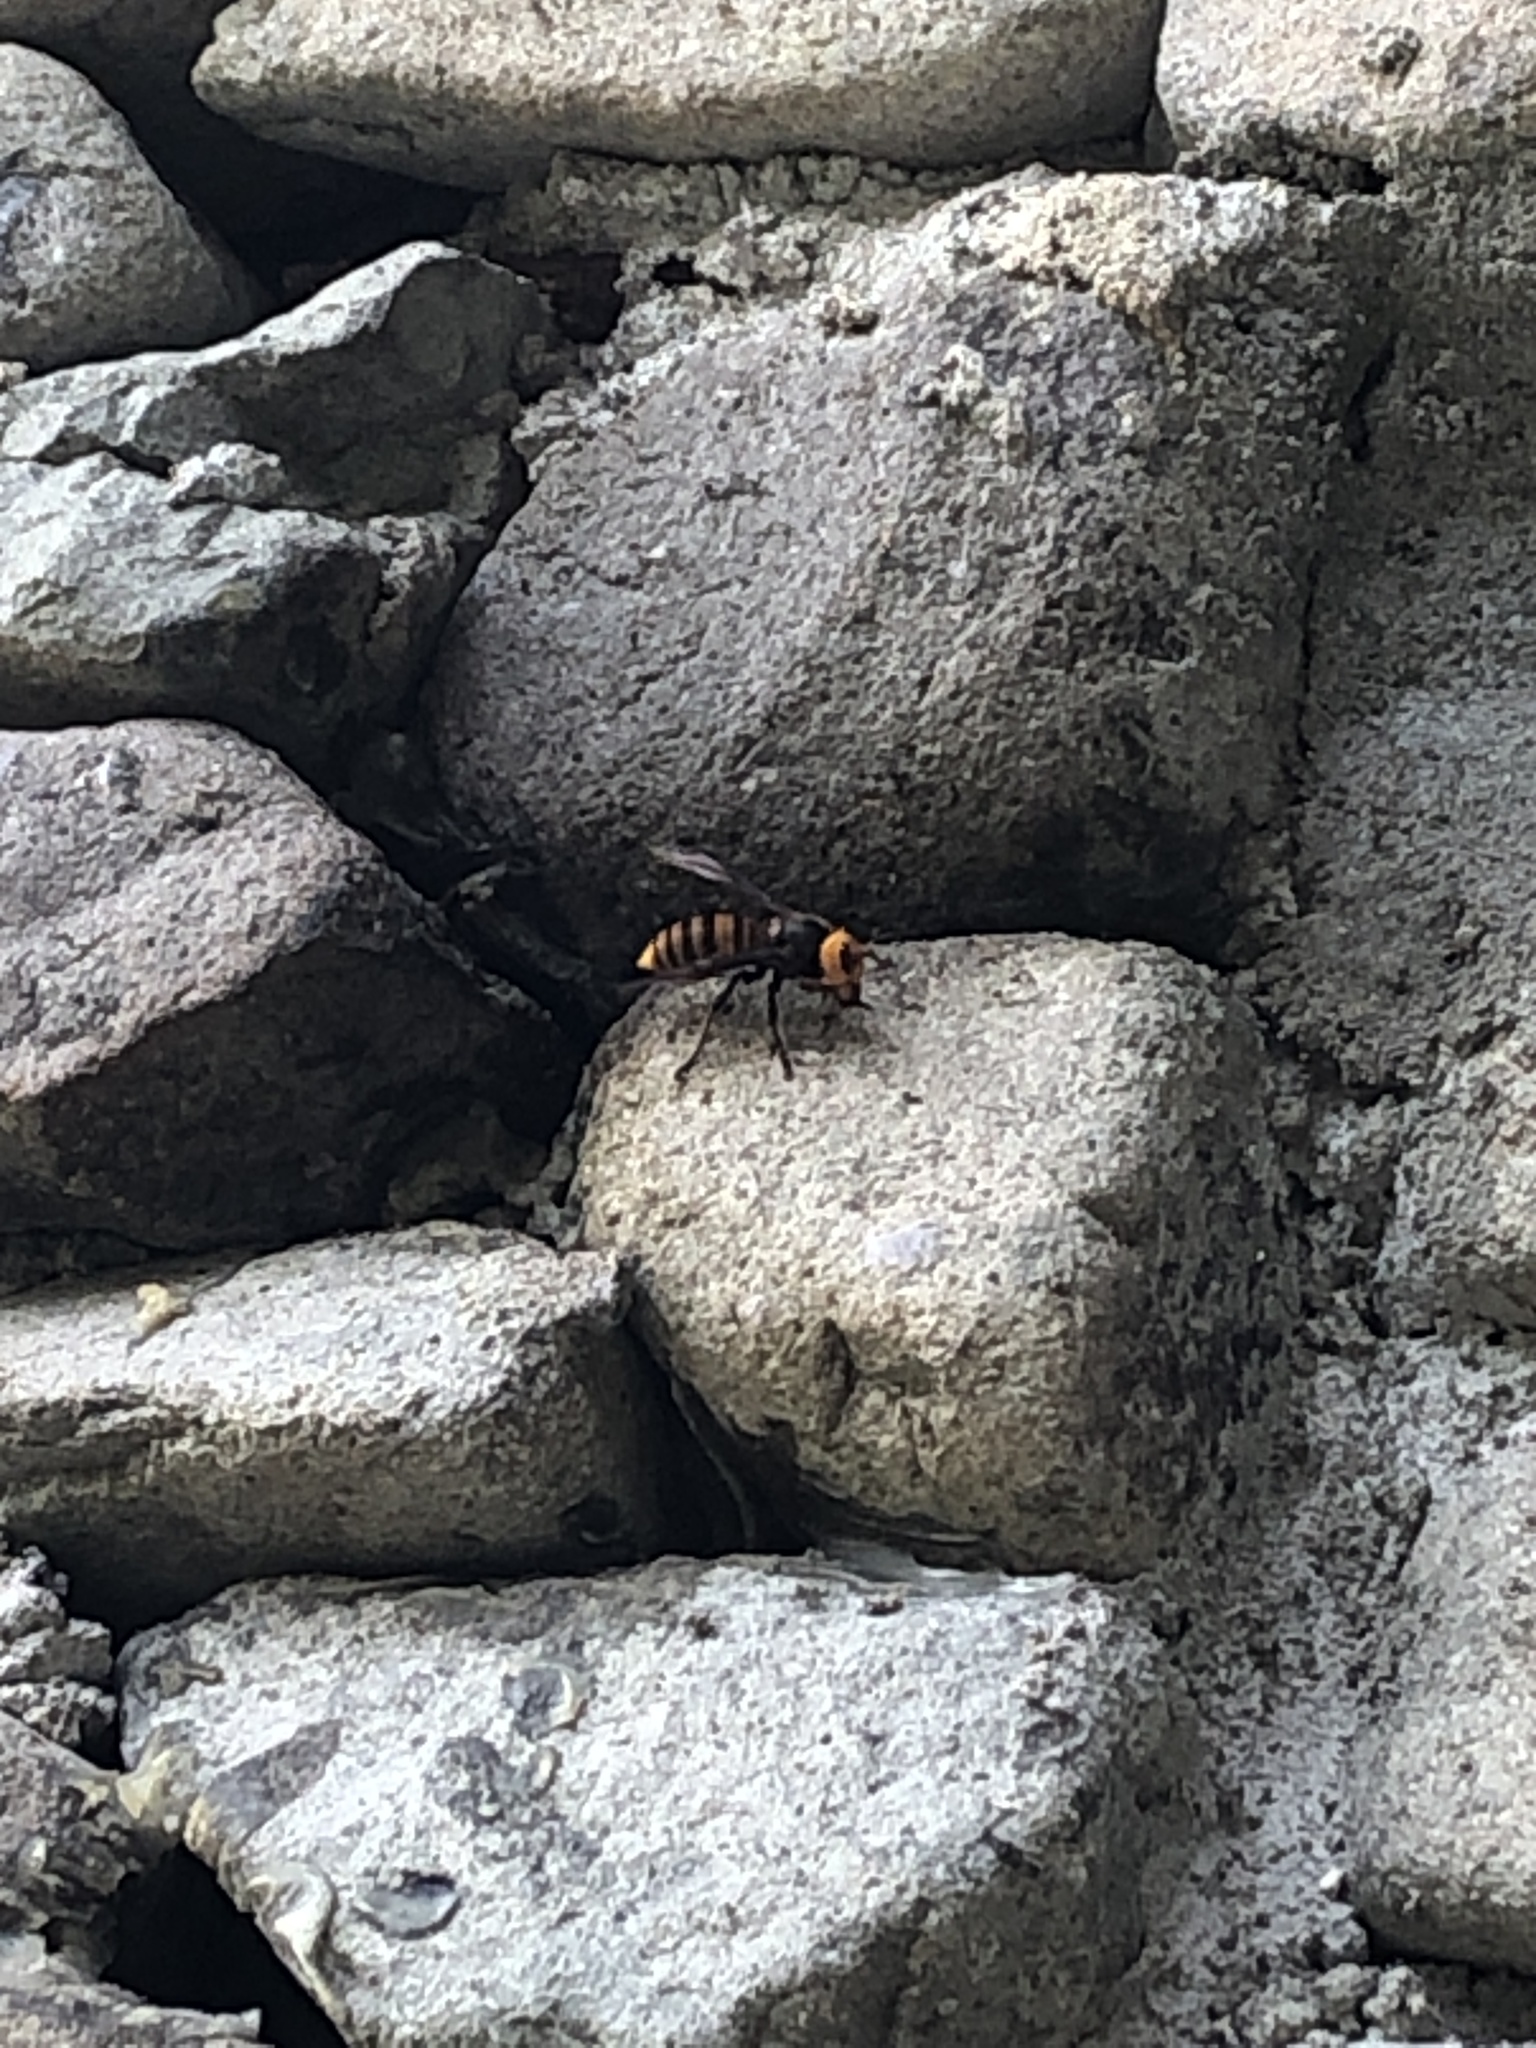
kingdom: Animalia
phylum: Arthropoda
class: Insecta
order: Hymenoptera
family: Vespidae
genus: Vespa
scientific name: Vespa mandarinia
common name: Asian giant hornet
